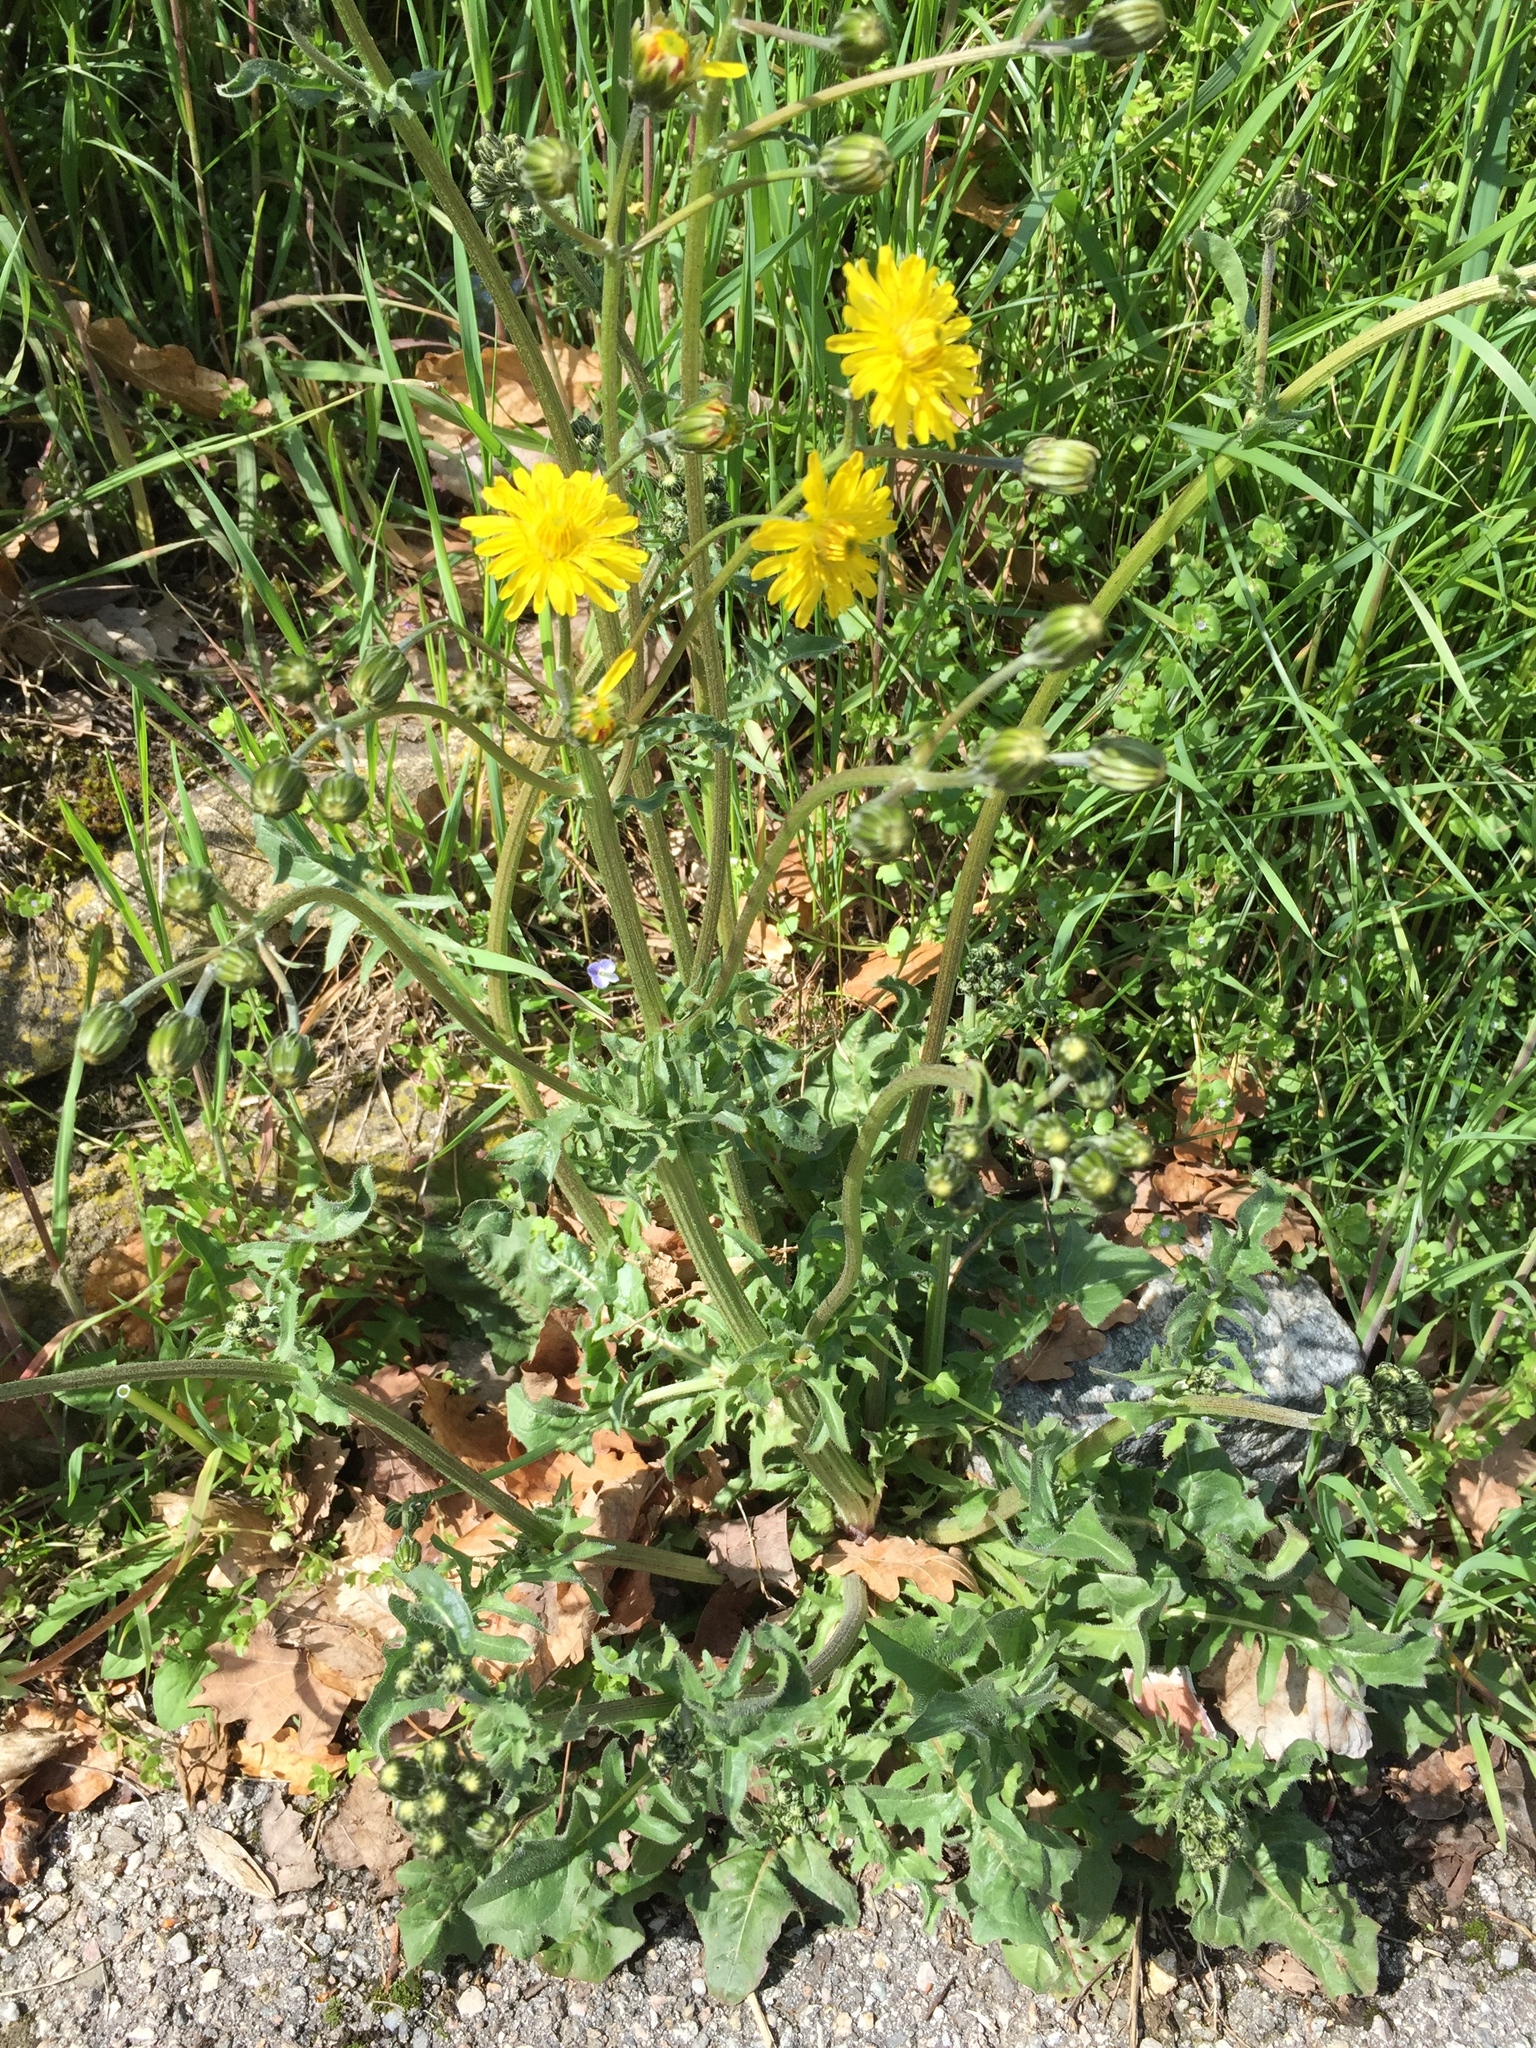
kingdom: Plantae
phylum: Tracheophyta
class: Magnoliopsida
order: Asterales
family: Asteraceae
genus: Crepis
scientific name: Crepis biennis
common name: Rough hawk's-beard
